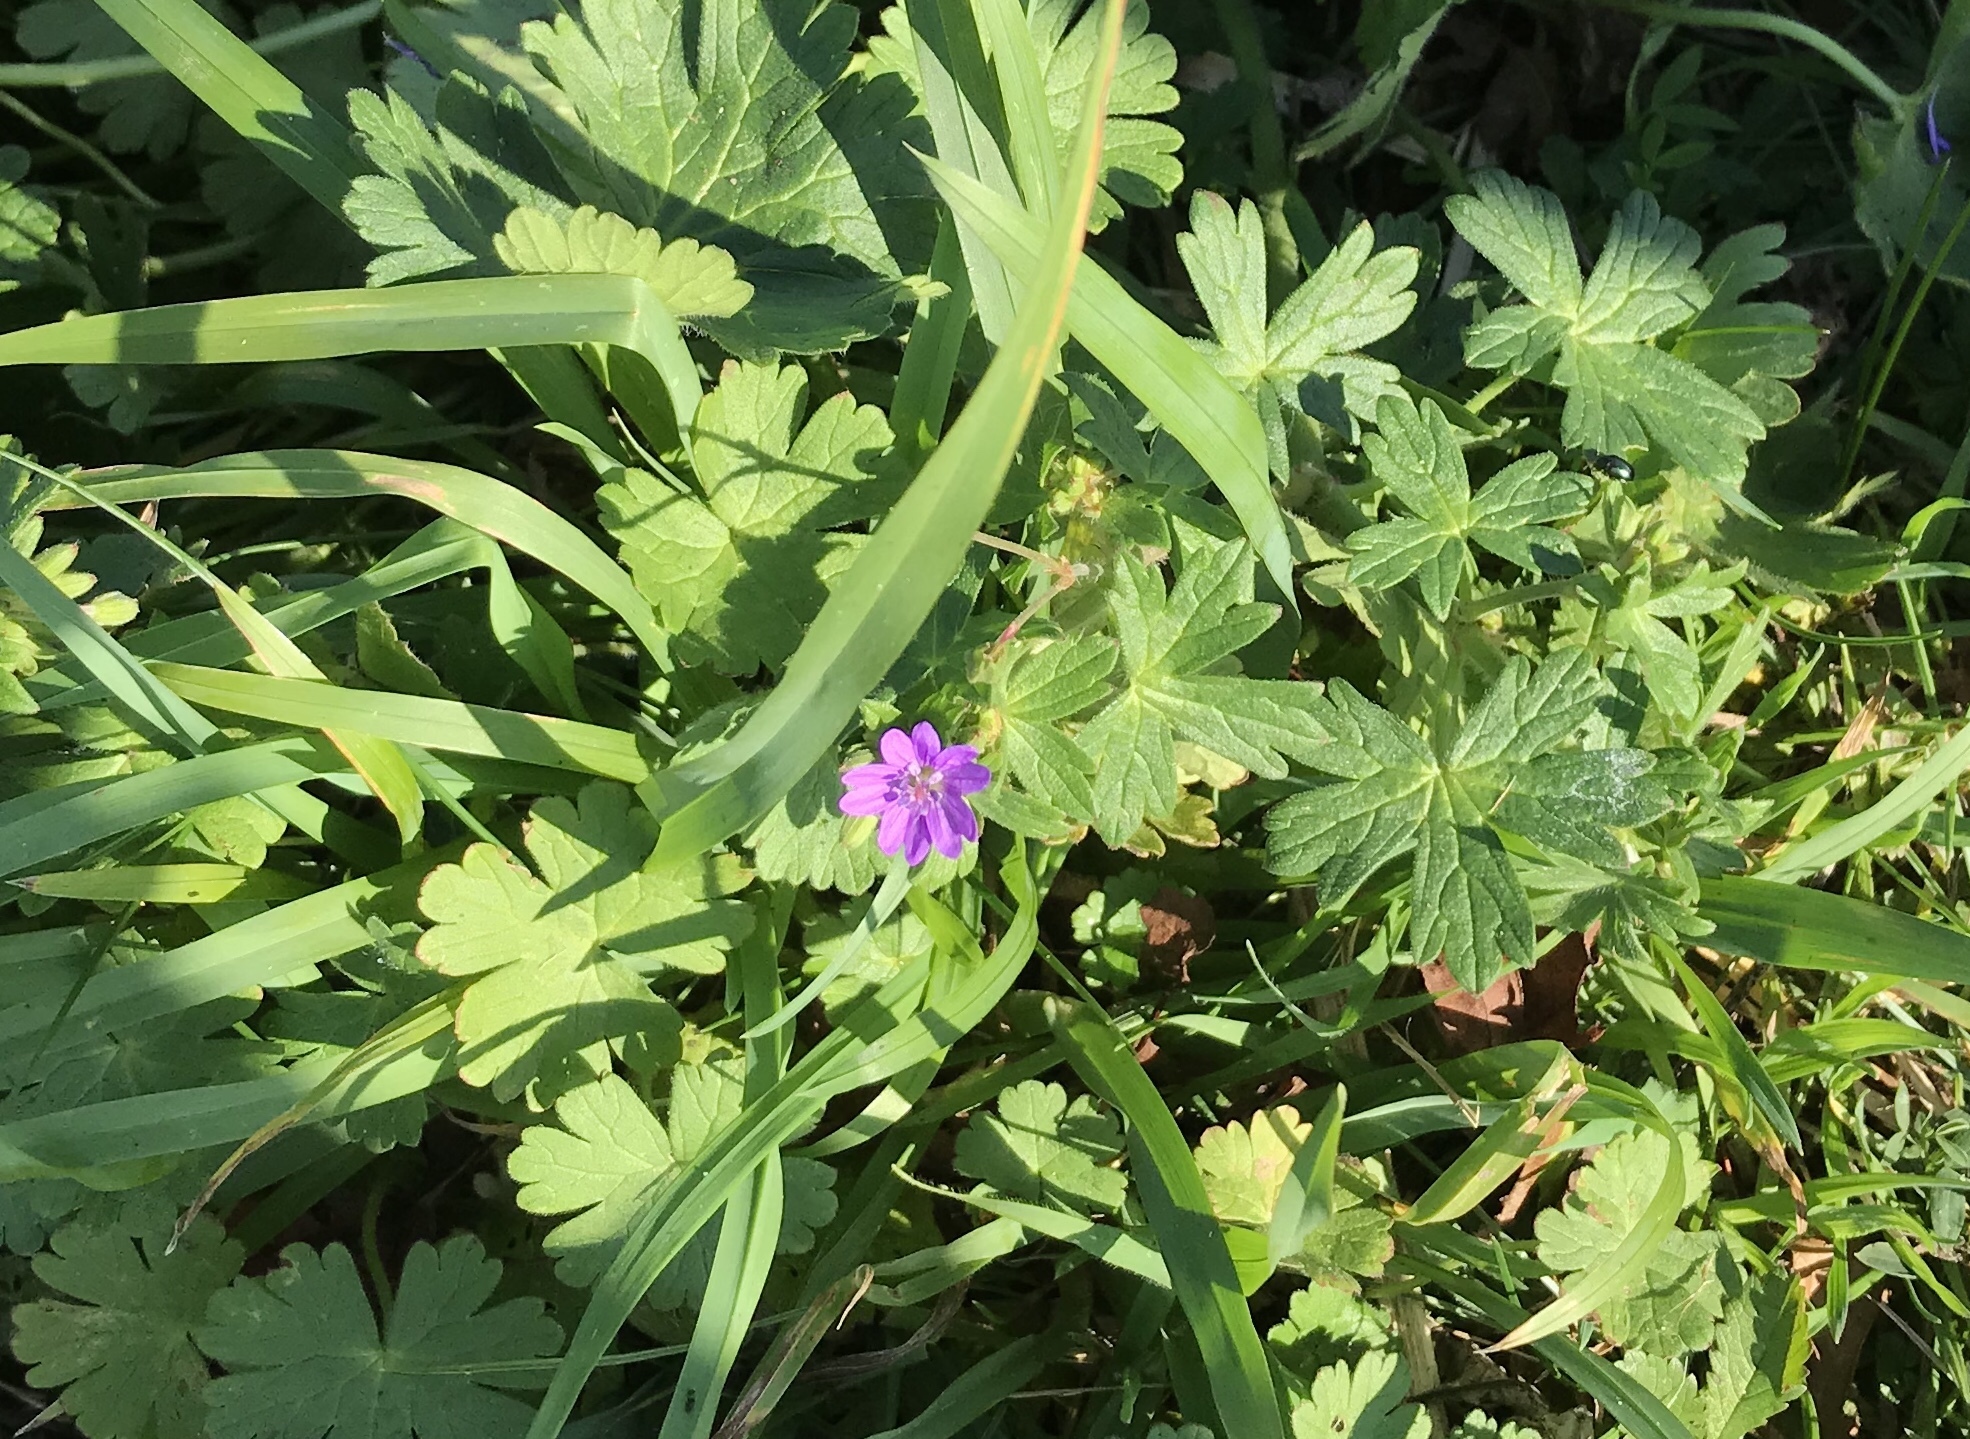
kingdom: Plantae
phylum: Tracheophyta
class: Magnoliopsida
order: Geraniales
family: Geraniaceae
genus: Geranium
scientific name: Geranium pyrenaicum
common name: Hedgerow crane's-bill
